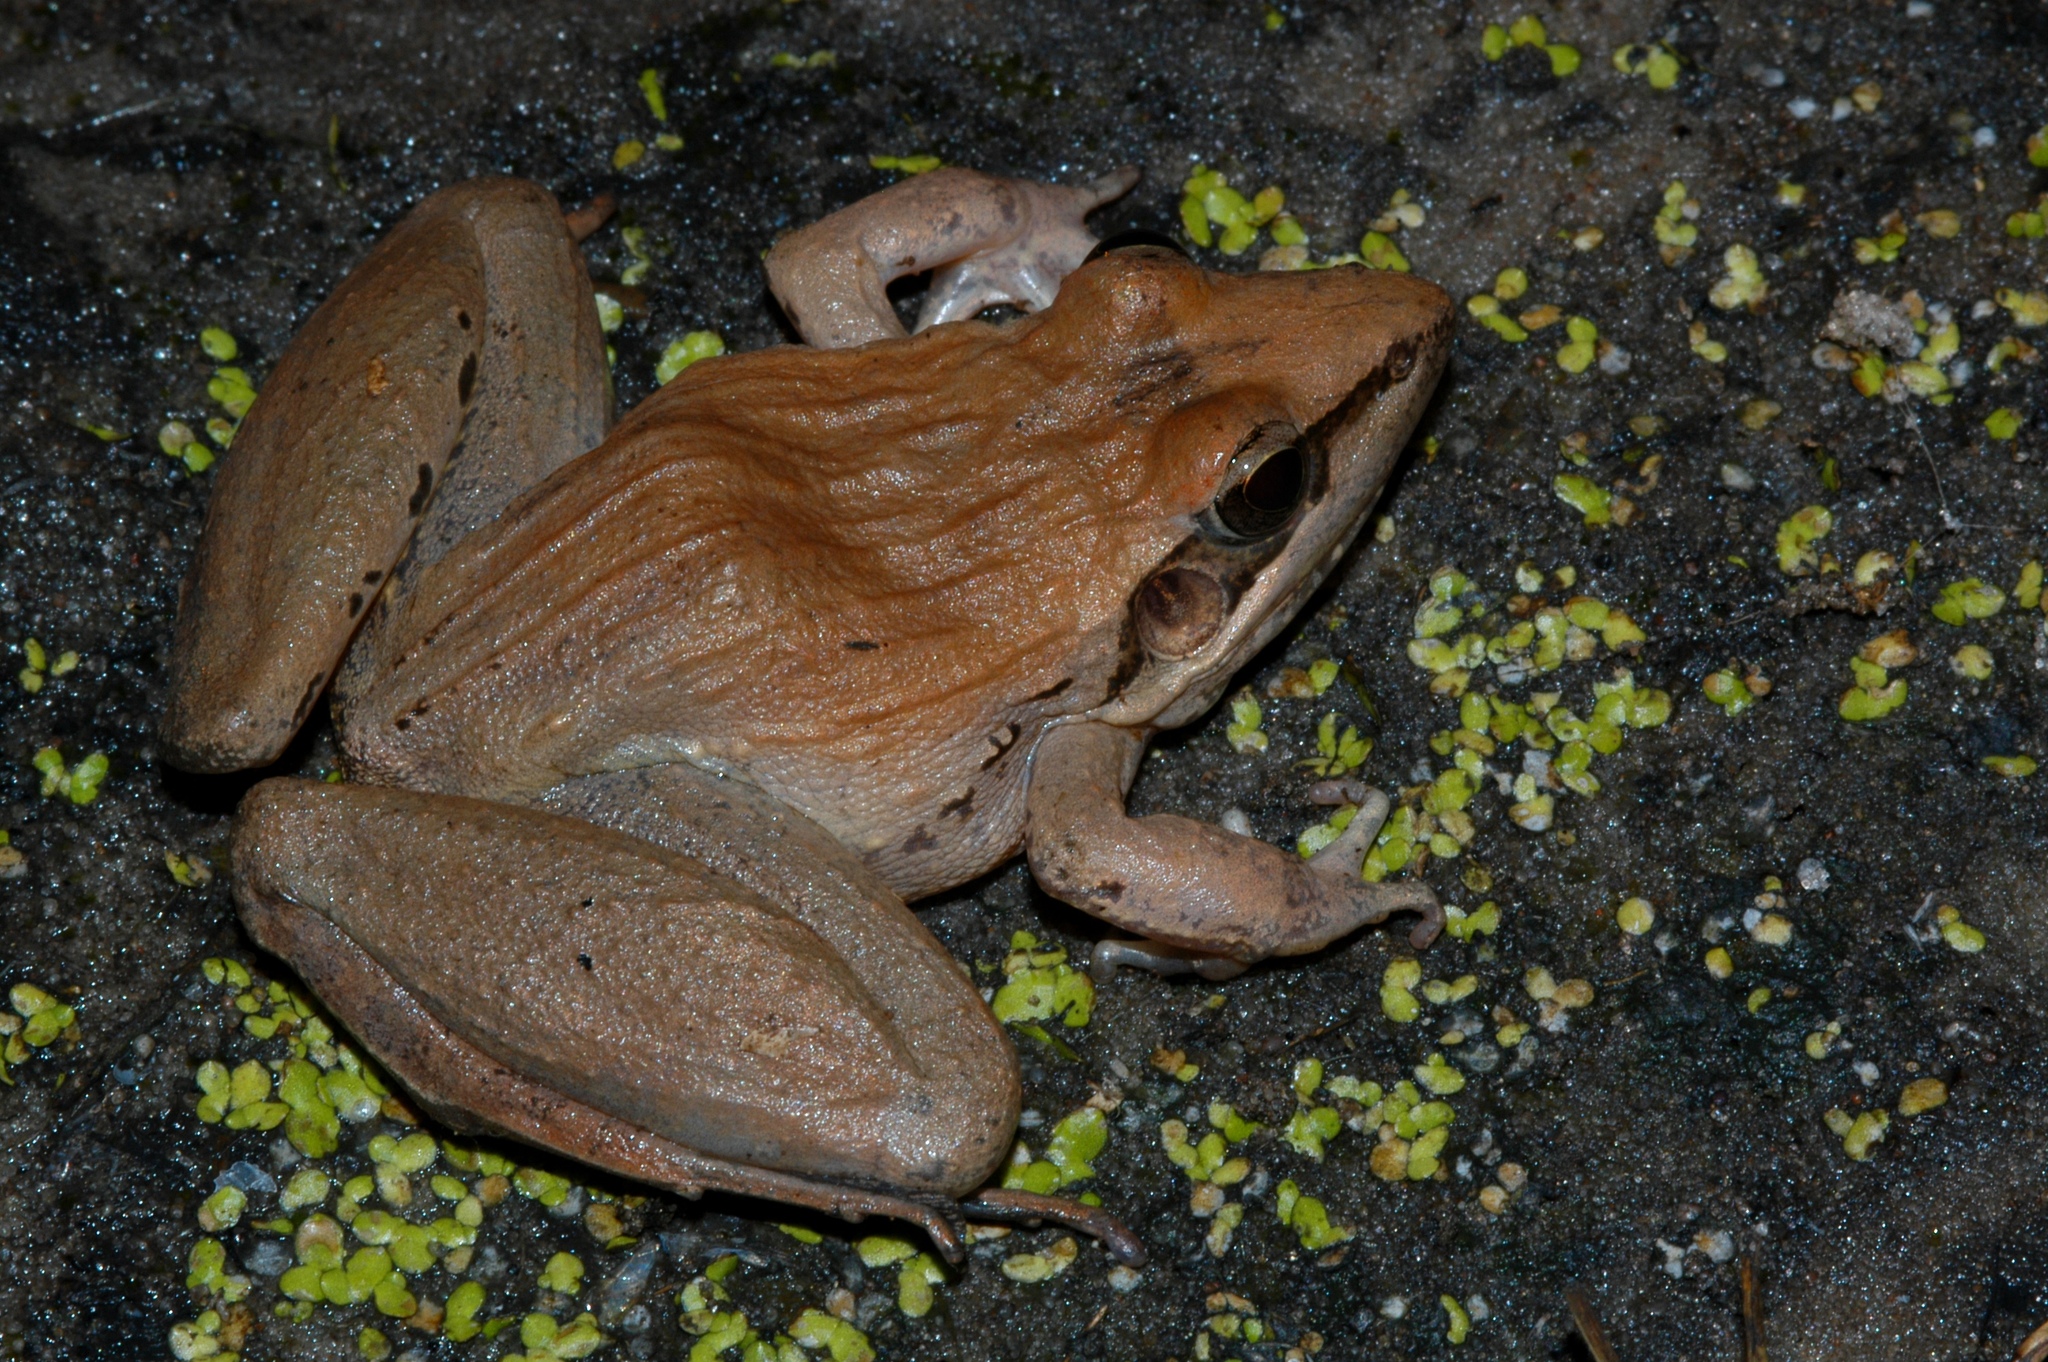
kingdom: Animalia
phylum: Chordata
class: Amphibia
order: Anura
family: Ptychadenidae
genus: Ptychadena
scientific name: Ptychadena anchietae
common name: Anchieta's ridged frog
